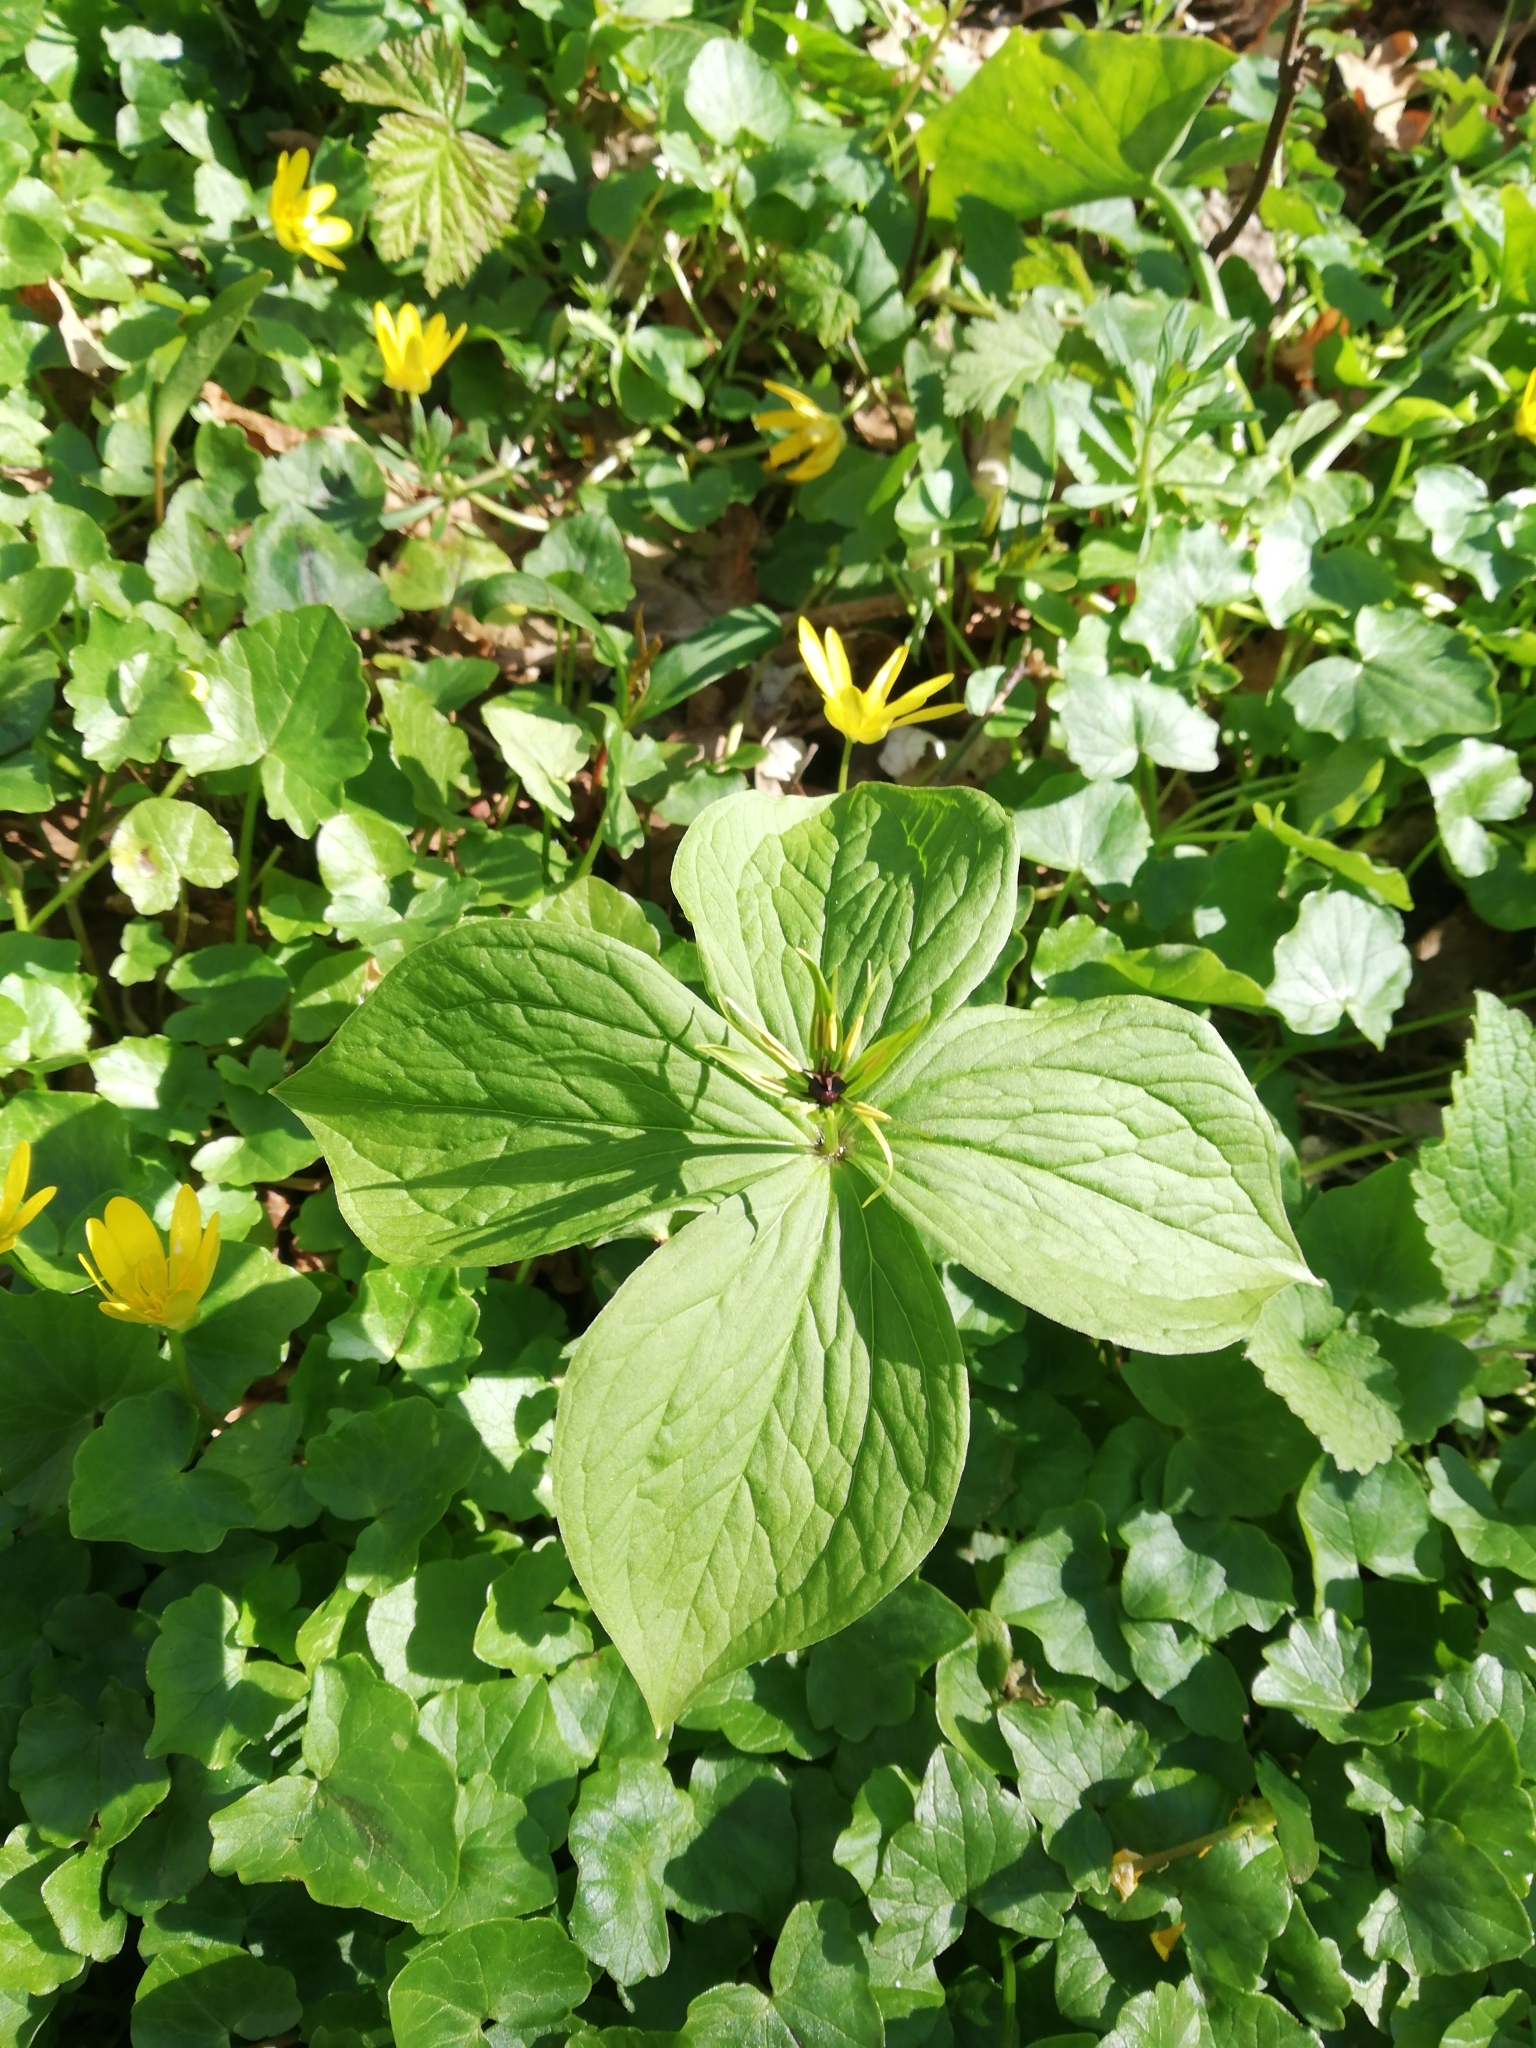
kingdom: Plantae
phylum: Tracheophyta
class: Liliopsida
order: Liliales
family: Melanthiaceae
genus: Paris
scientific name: Paris quadrifolia
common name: Herb-paris
